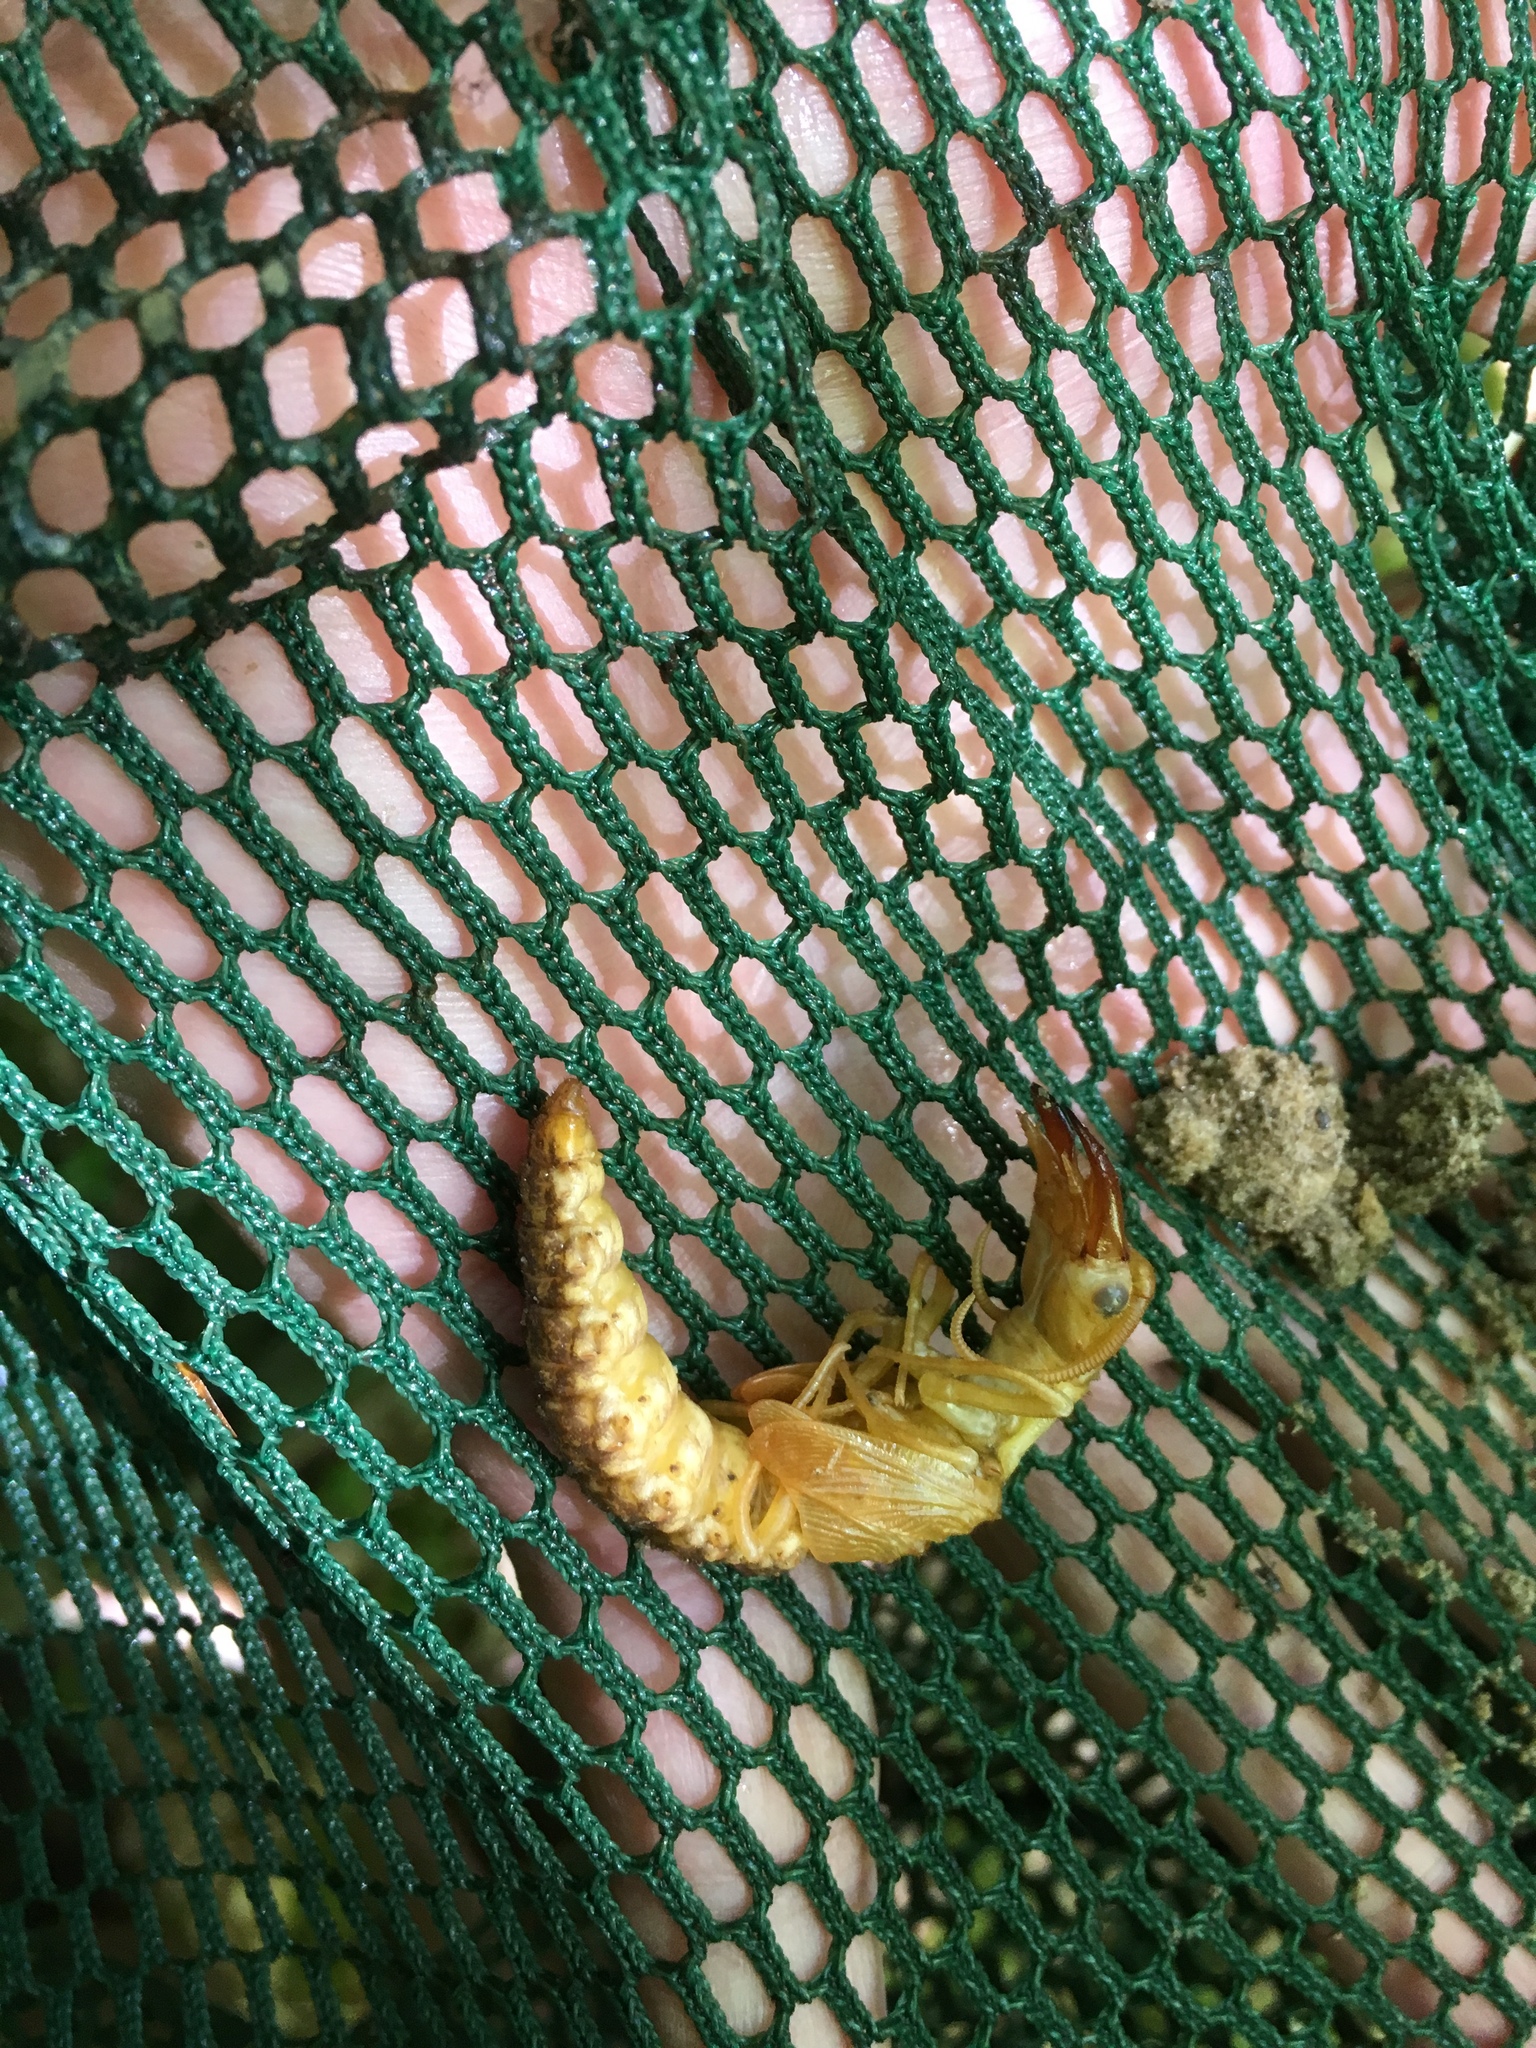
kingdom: Animalia
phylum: Arthropoda
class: Insecta
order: Megaloptera
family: Corydalidae
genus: Corydalus
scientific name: Corydalus cornutus
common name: Dobsonfly
